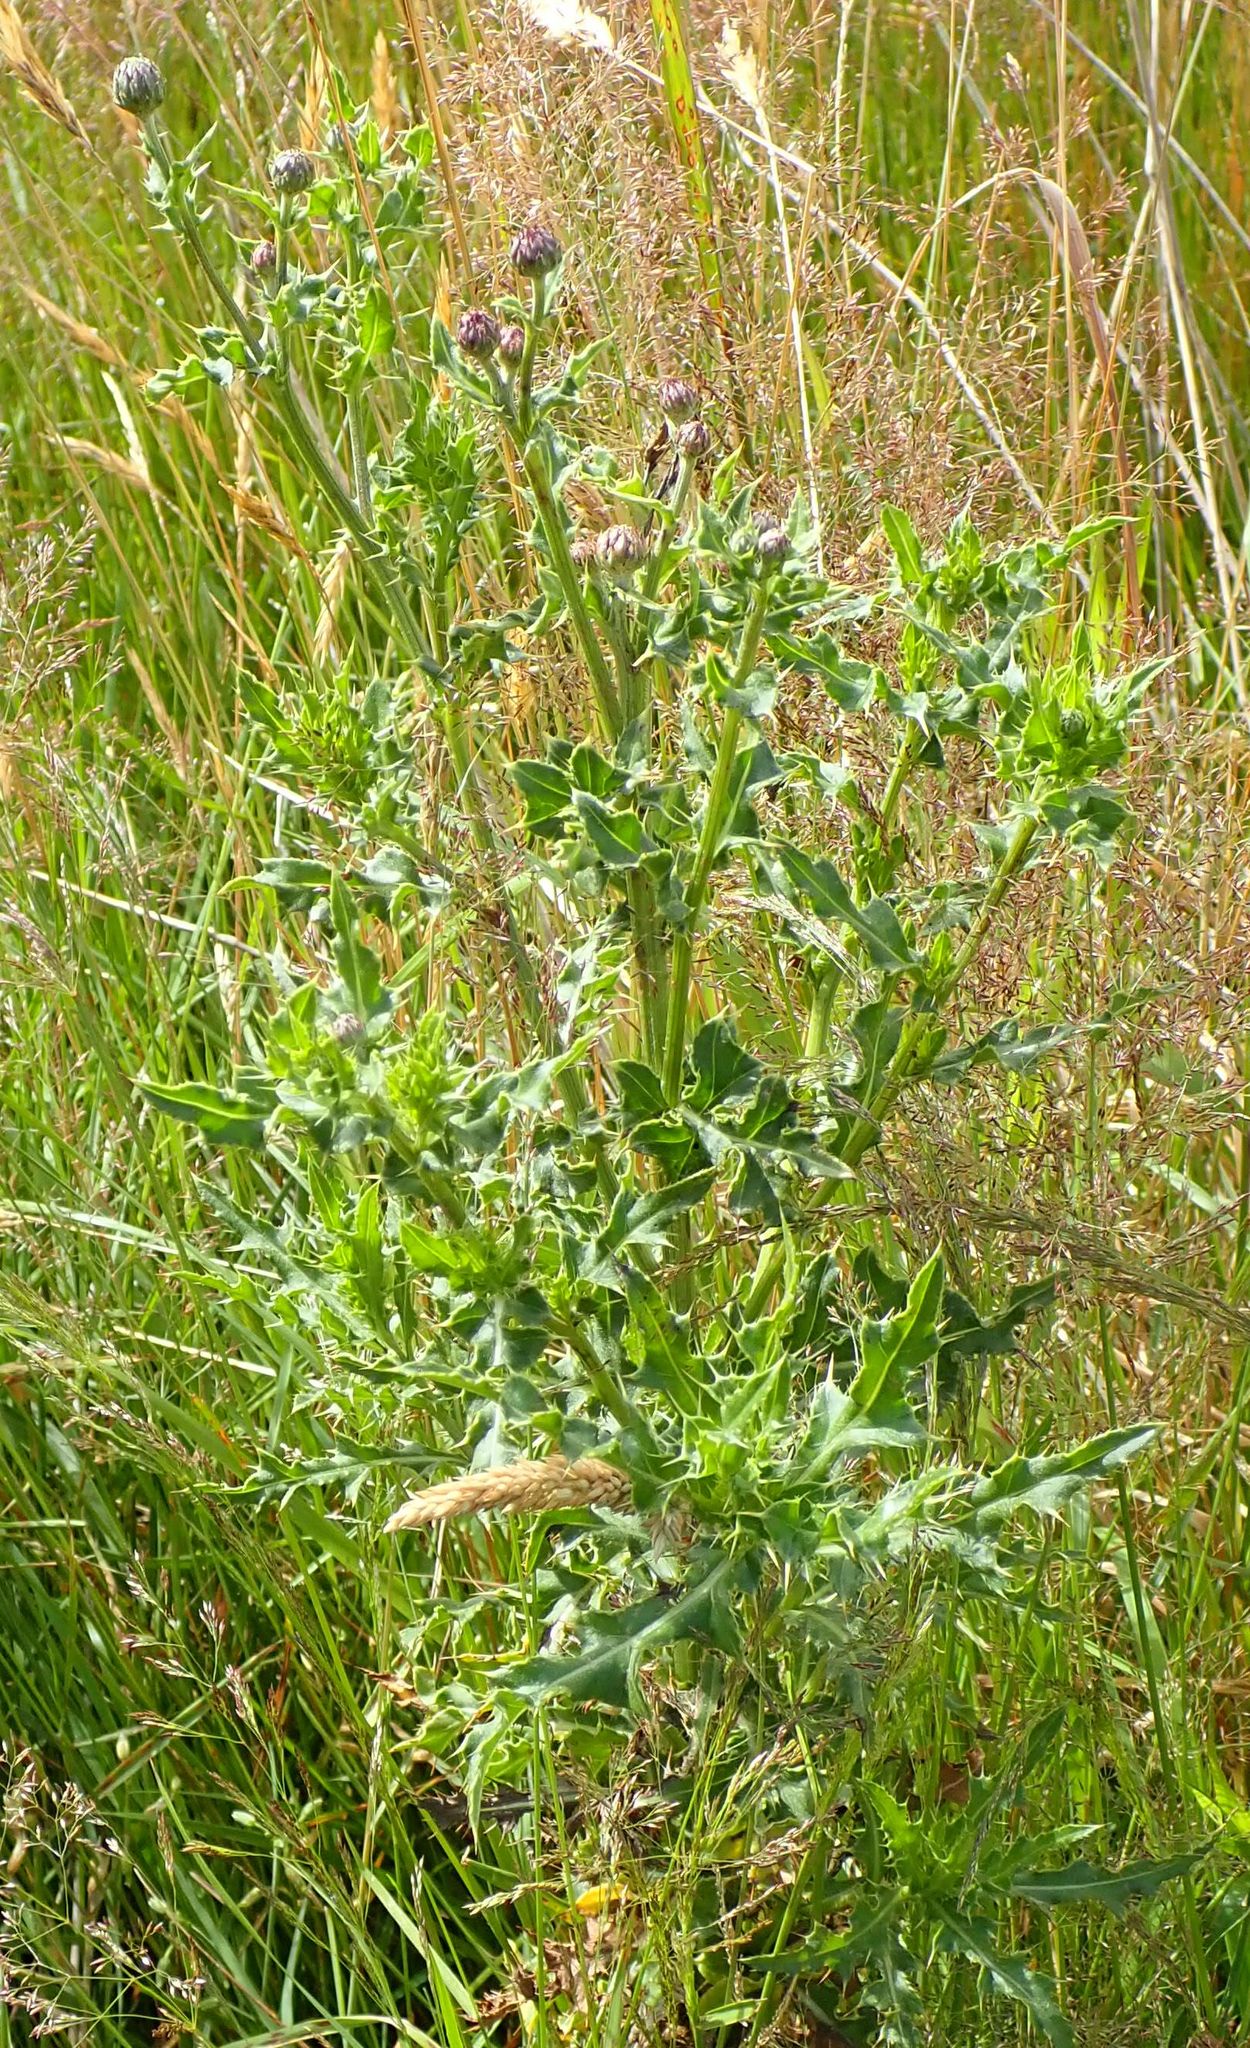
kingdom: Plantae
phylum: Tracheophyta
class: Magnoliopsida
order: Asterales
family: Asteraceae
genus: Cirsium
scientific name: Cirsium arvense
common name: Creeping thistle
